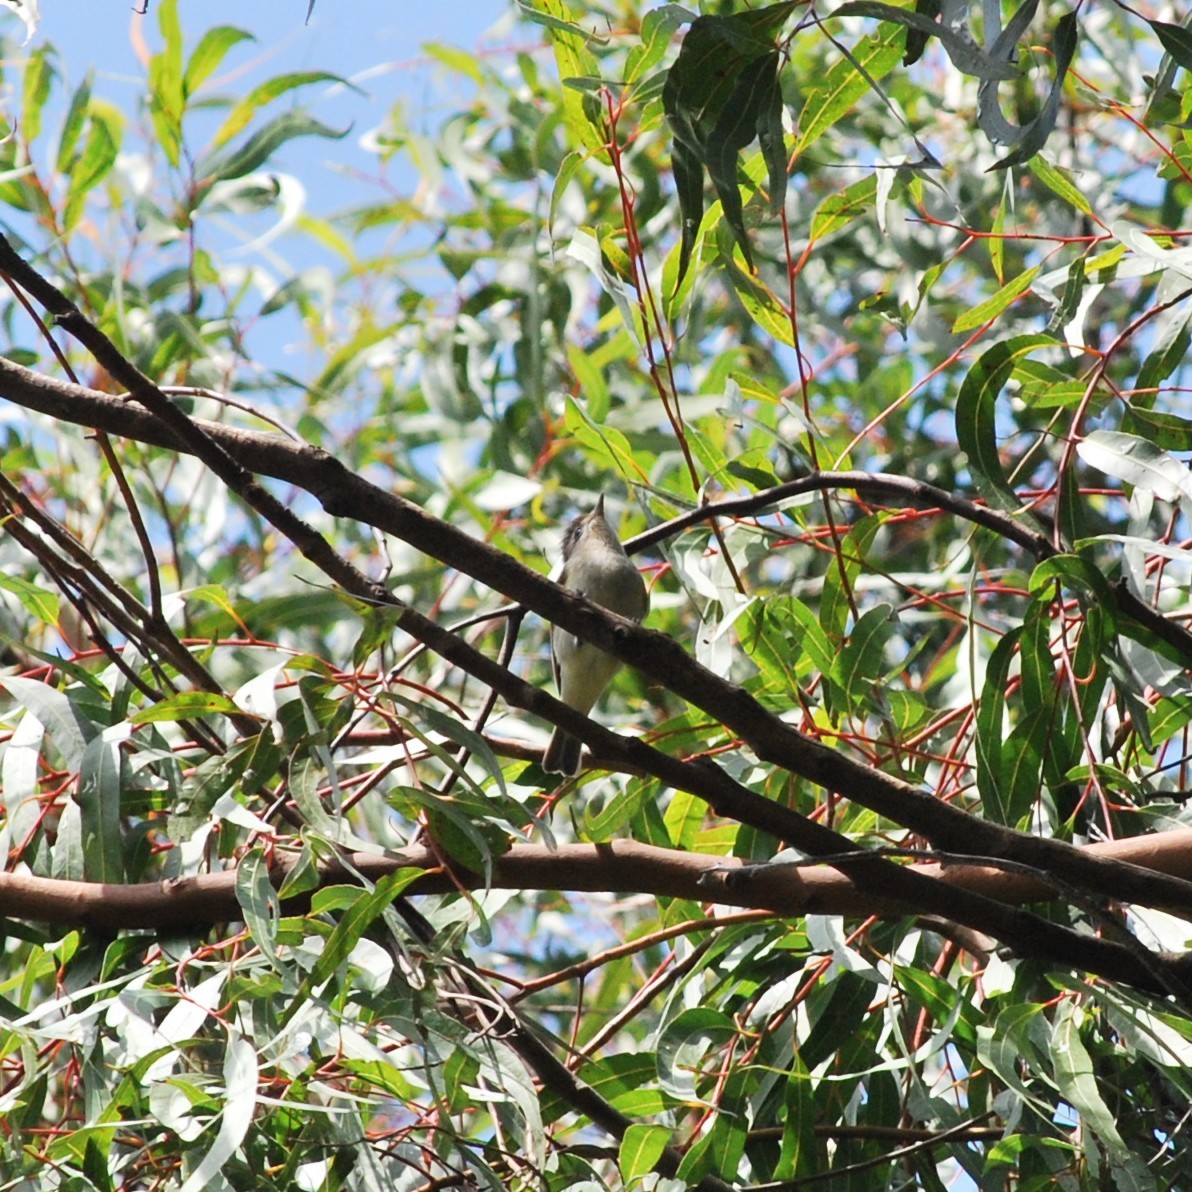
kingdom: Animalia
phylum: Chordata
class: Aves
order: Passeriformes
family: Vireonidae
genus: Vireo
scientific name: Vireo gilvus
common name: Warbling vireo
